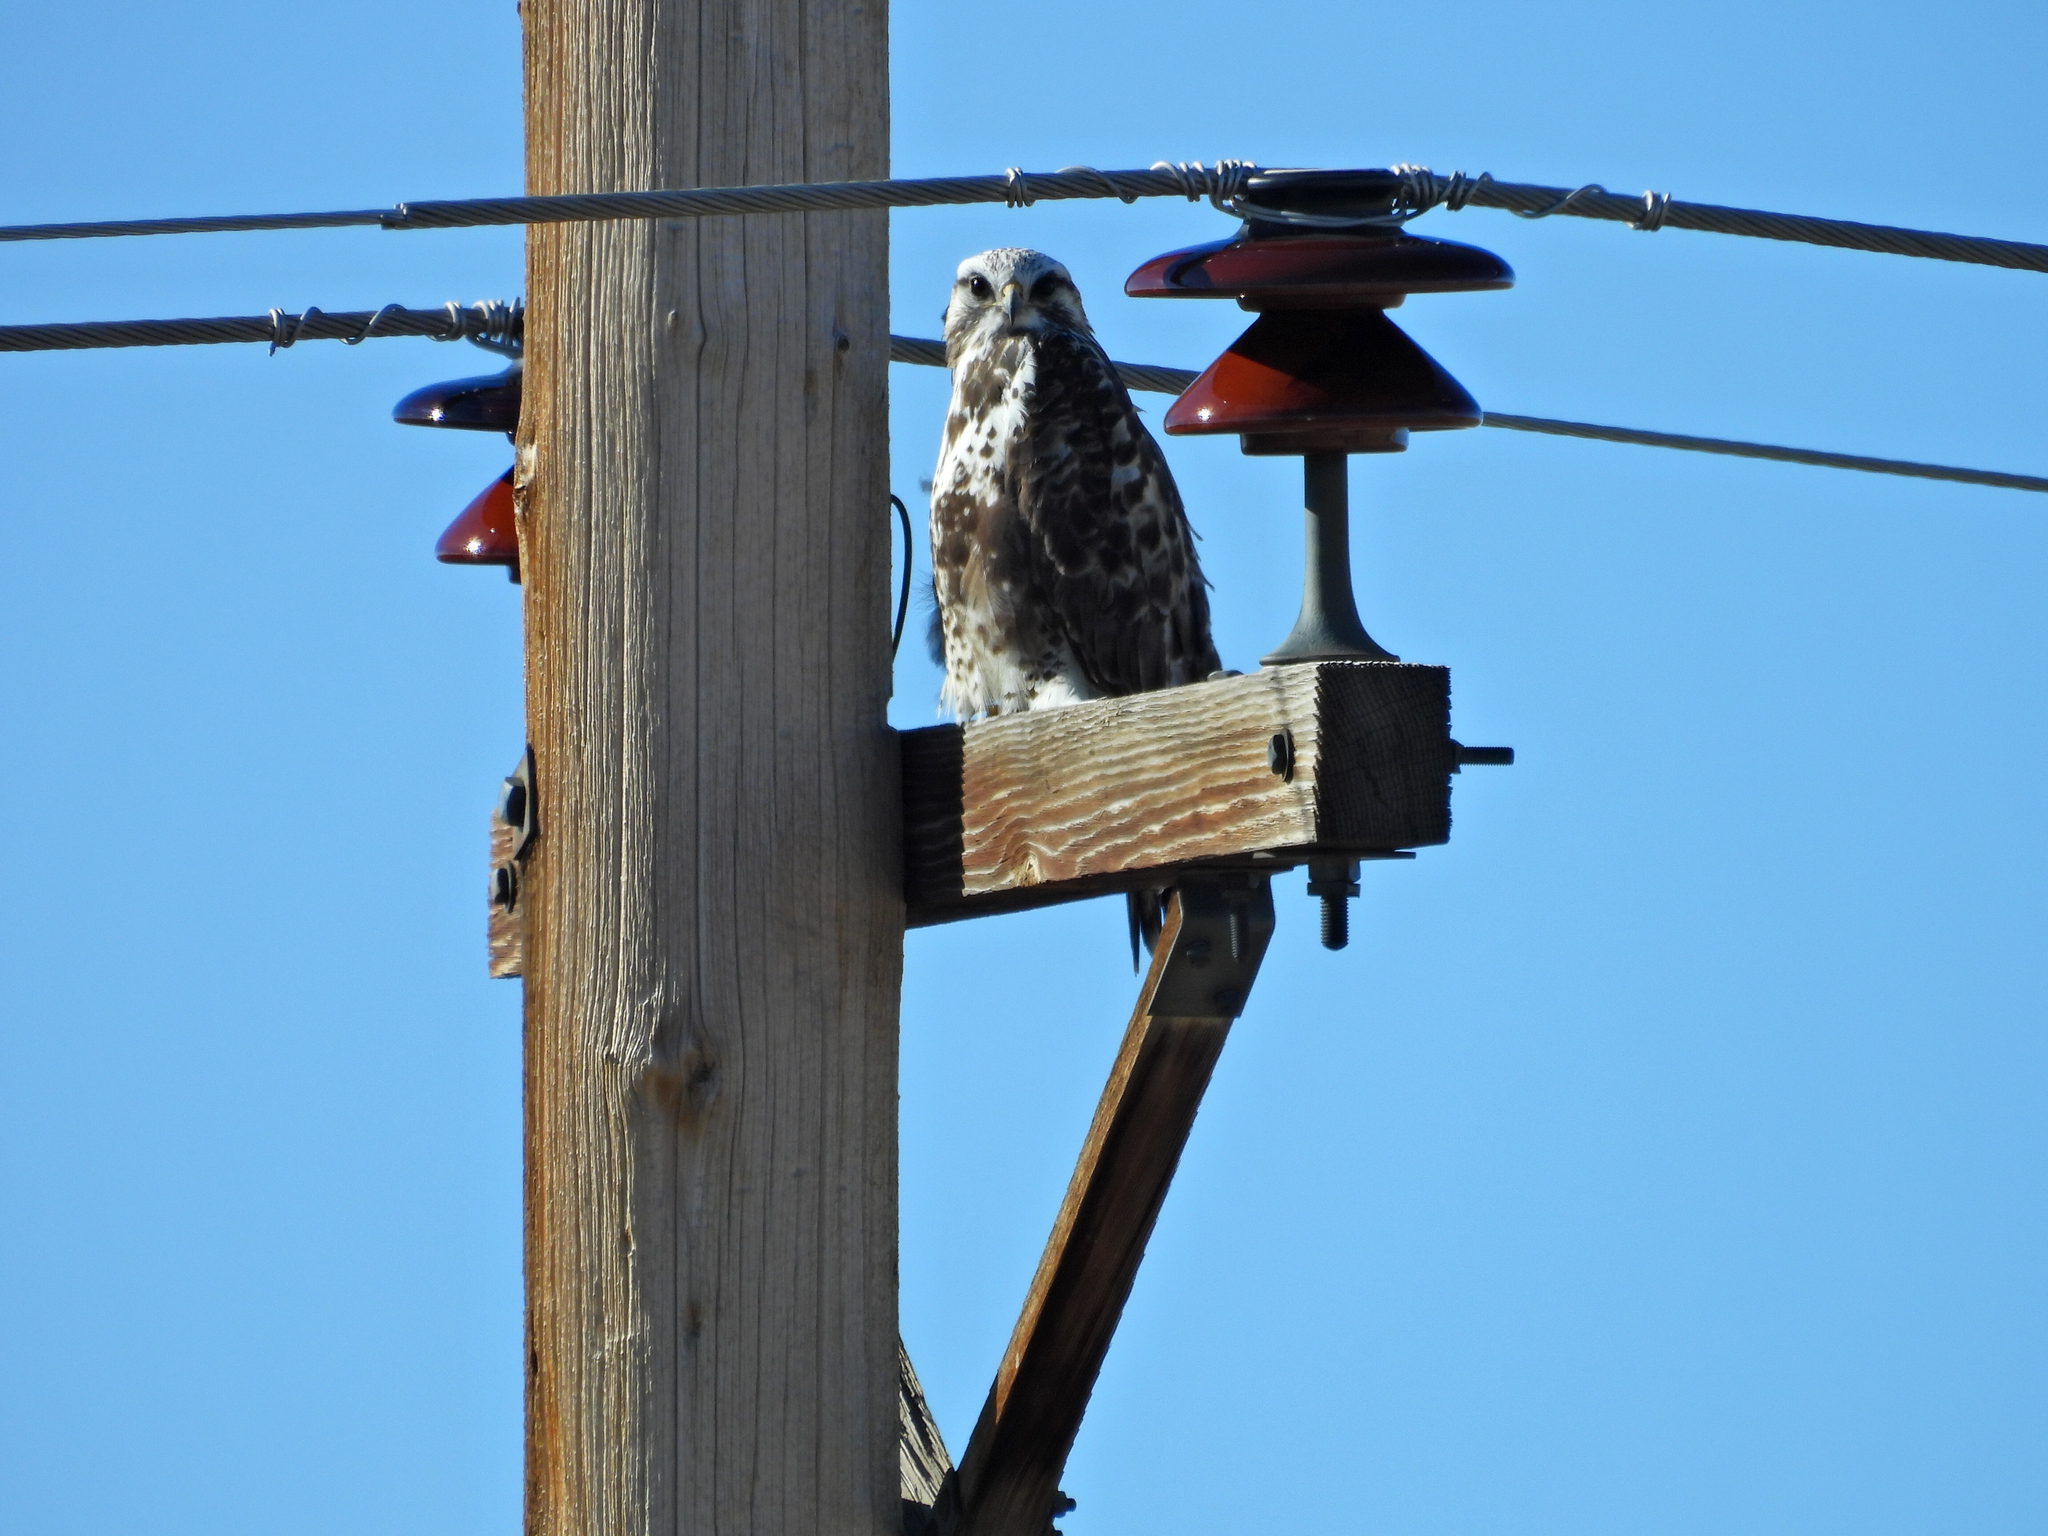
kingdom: Animalia
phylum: Chordata
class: Aves
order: Accipitriformes
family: Accipitridae
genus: Buteo
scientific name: Buteo lagopus
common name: Rough-legged buzzard
